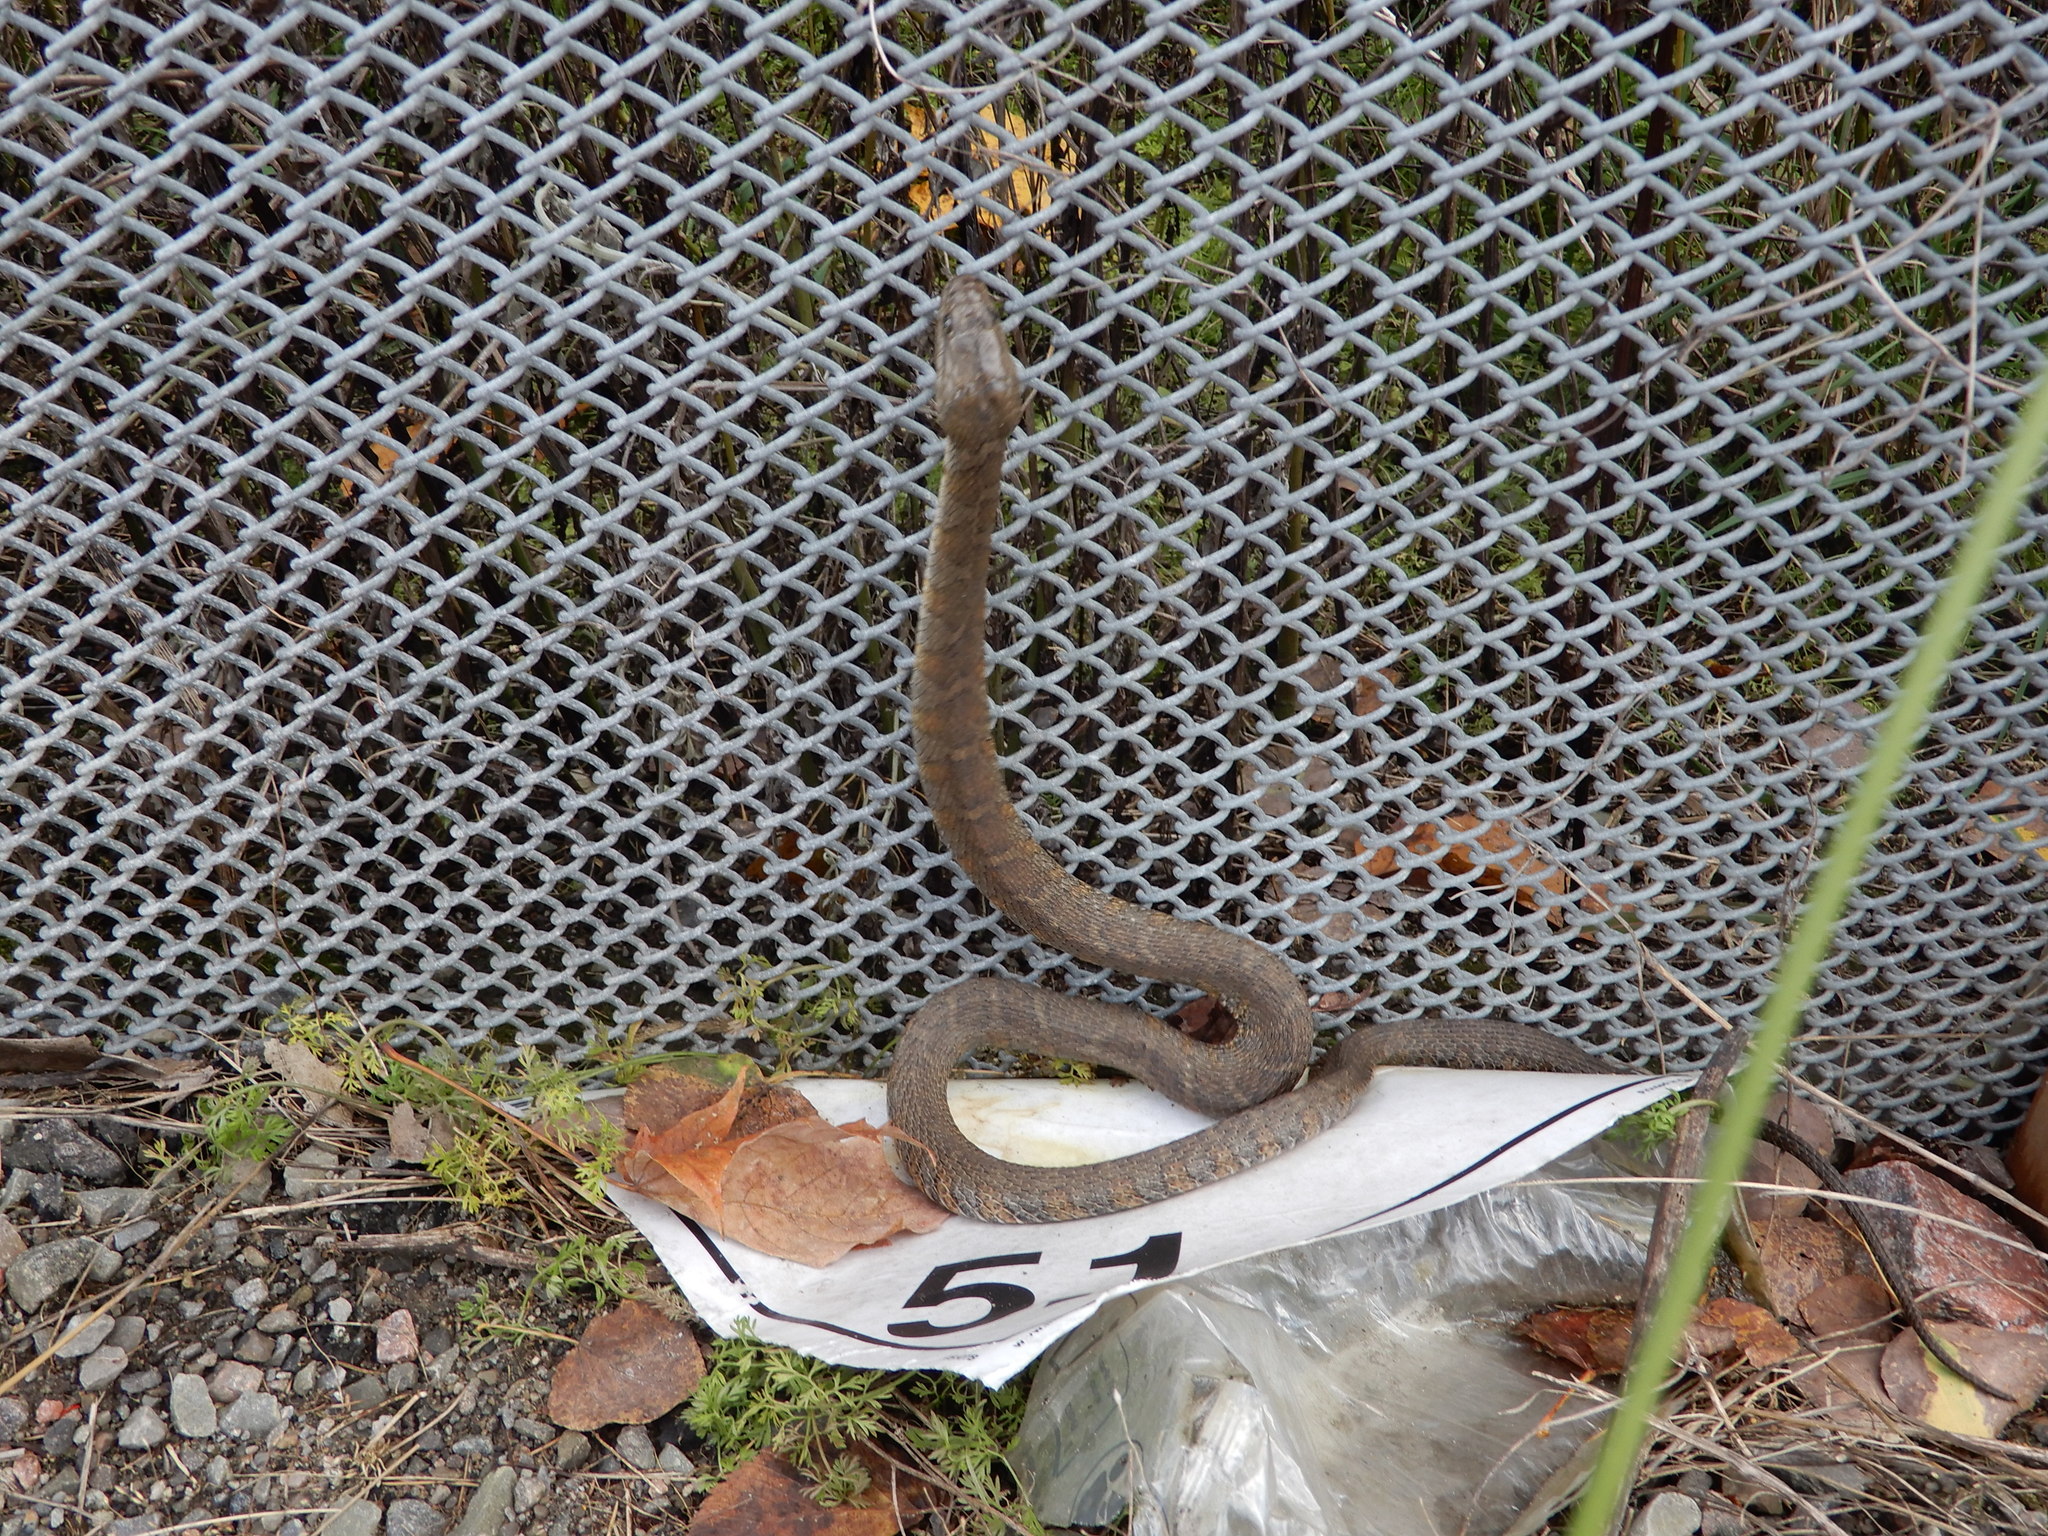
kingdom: Animalia
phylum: Chordata
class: Squamata
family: Colubridae
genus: Nerodia
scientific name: Nerodia sipedon
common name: Northern water snake
